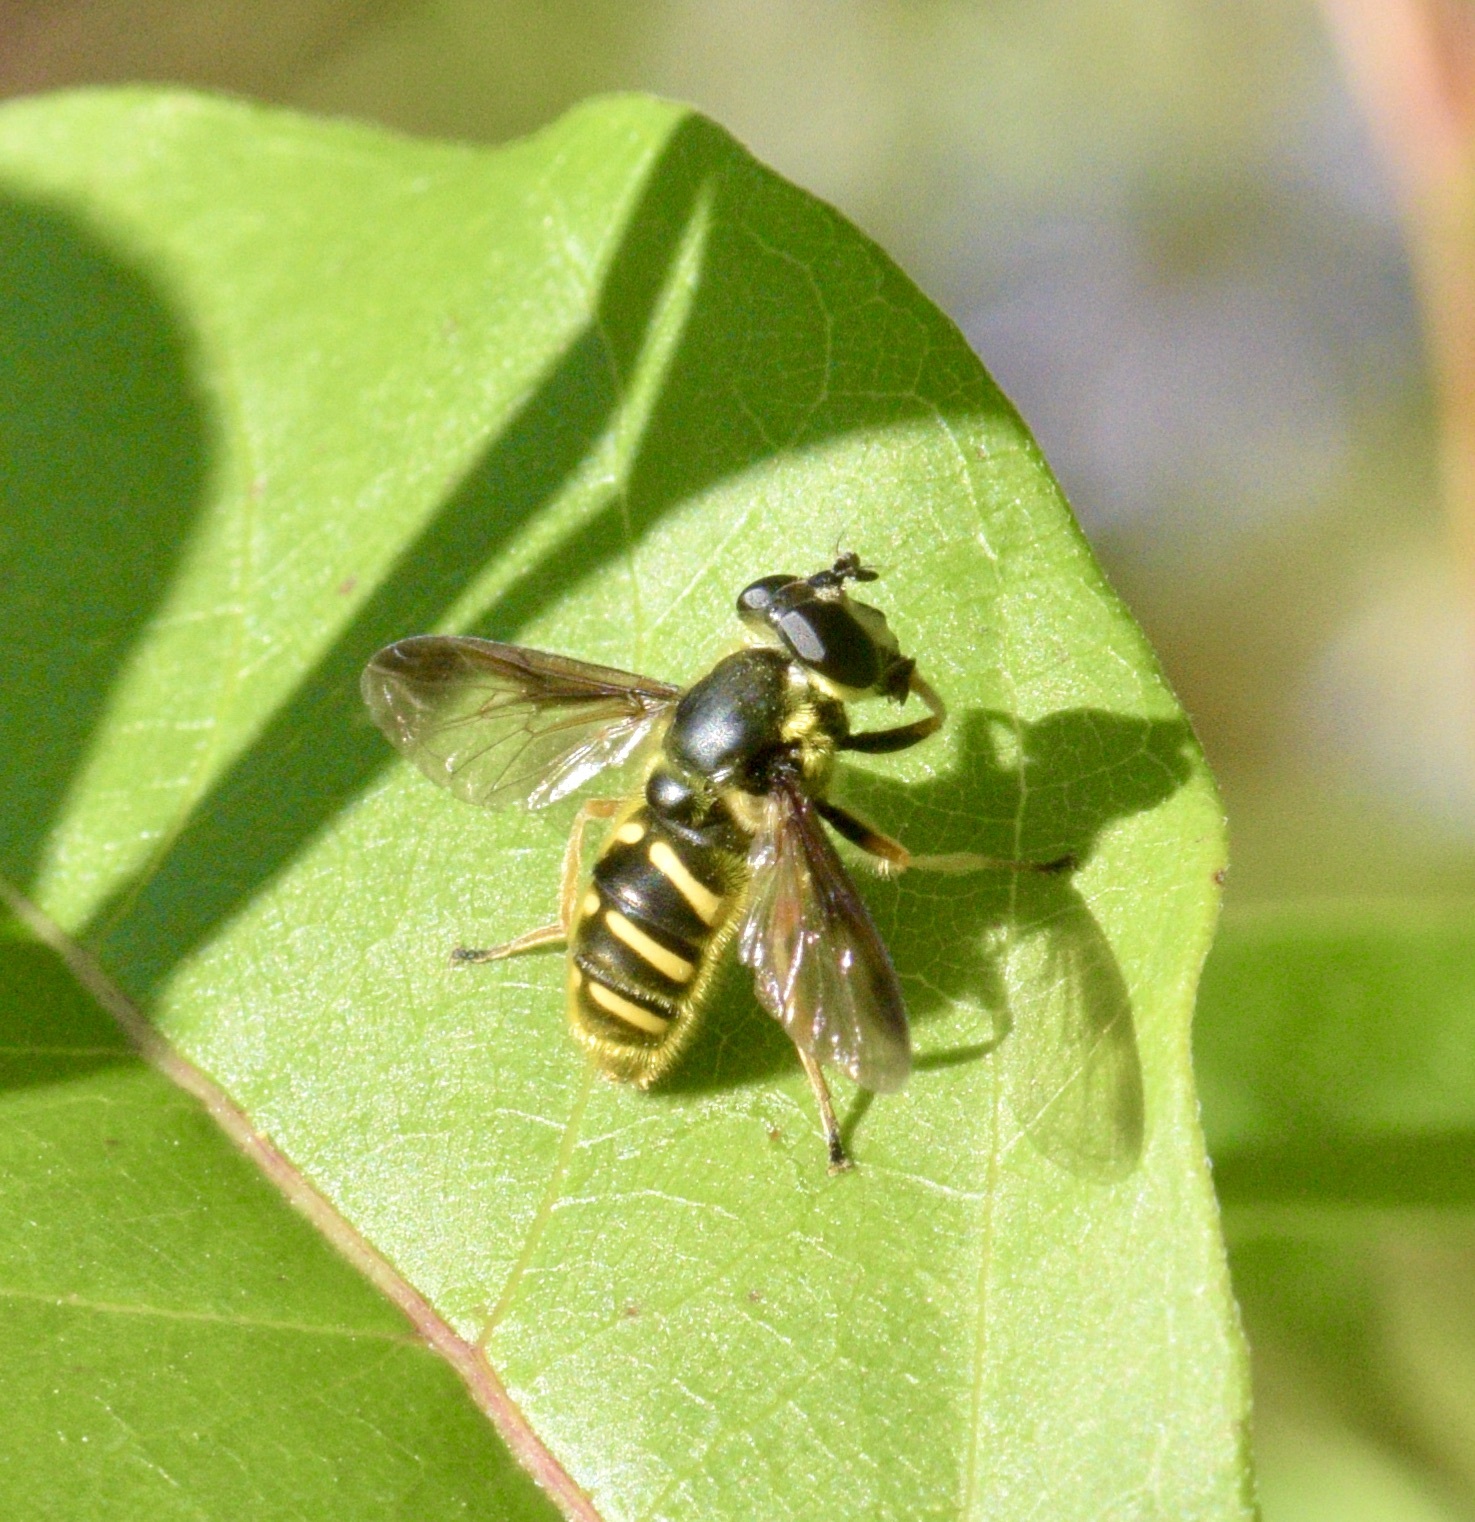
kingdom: Animalia
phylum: Arthropoda
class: Insecta
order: Diptera
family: Syrphidae
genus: Sericomyia
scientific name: Sericomyia chrysotoxoides
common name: Oblique-banded pond fly
